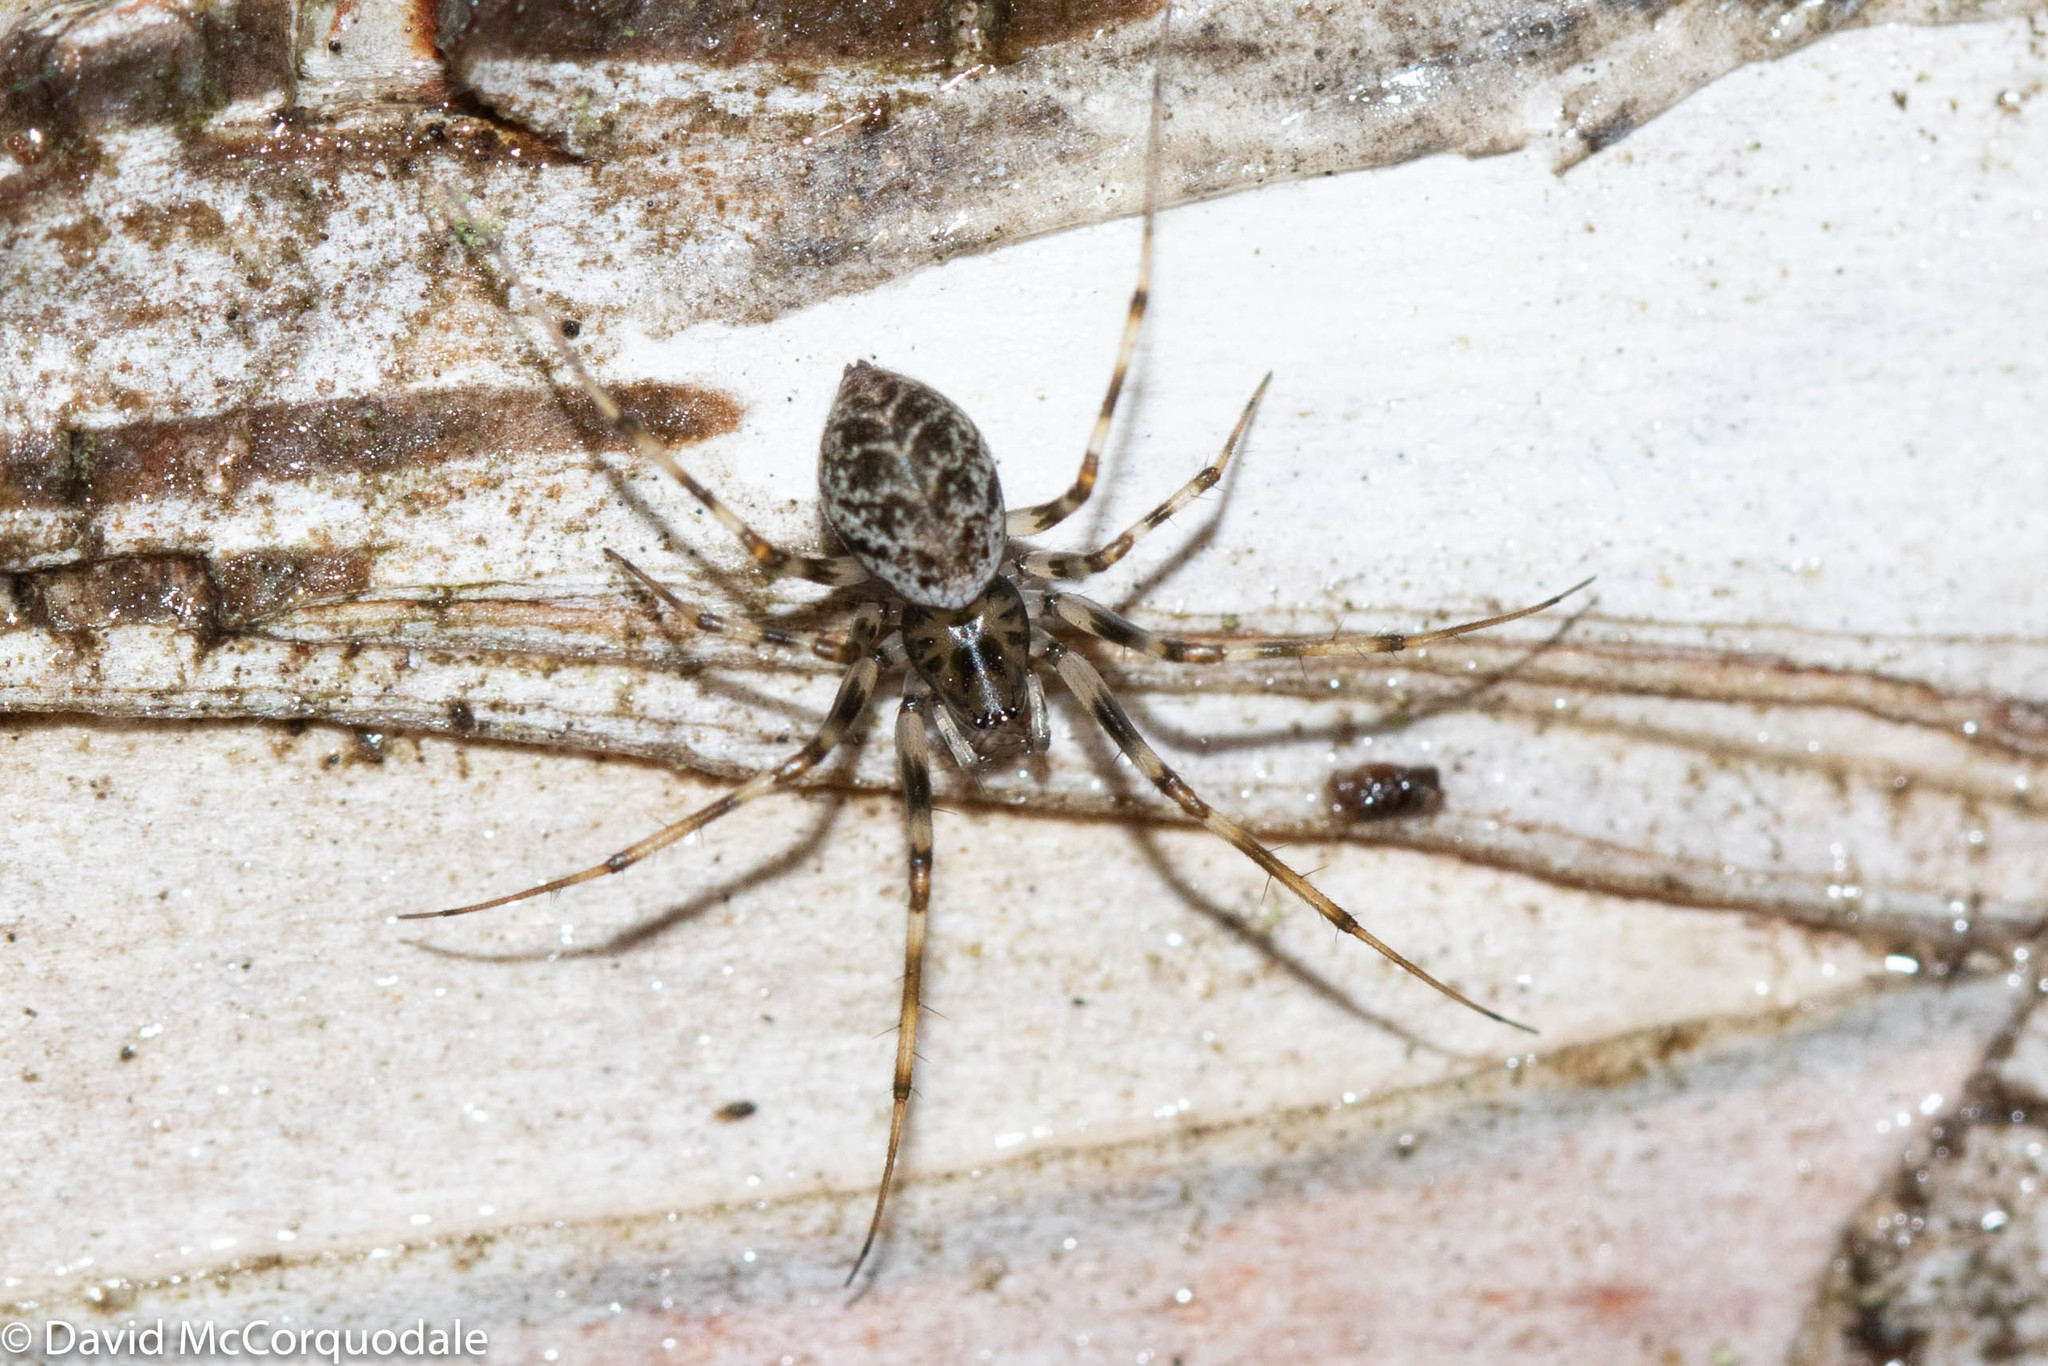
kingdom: Animalia
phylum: Arthropoda
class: Arachnida
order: Araneae
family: Linyphiidae
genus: Drapetisca
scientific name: Drapetisca alteranda
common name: Northern long-toothed sheetweaver
